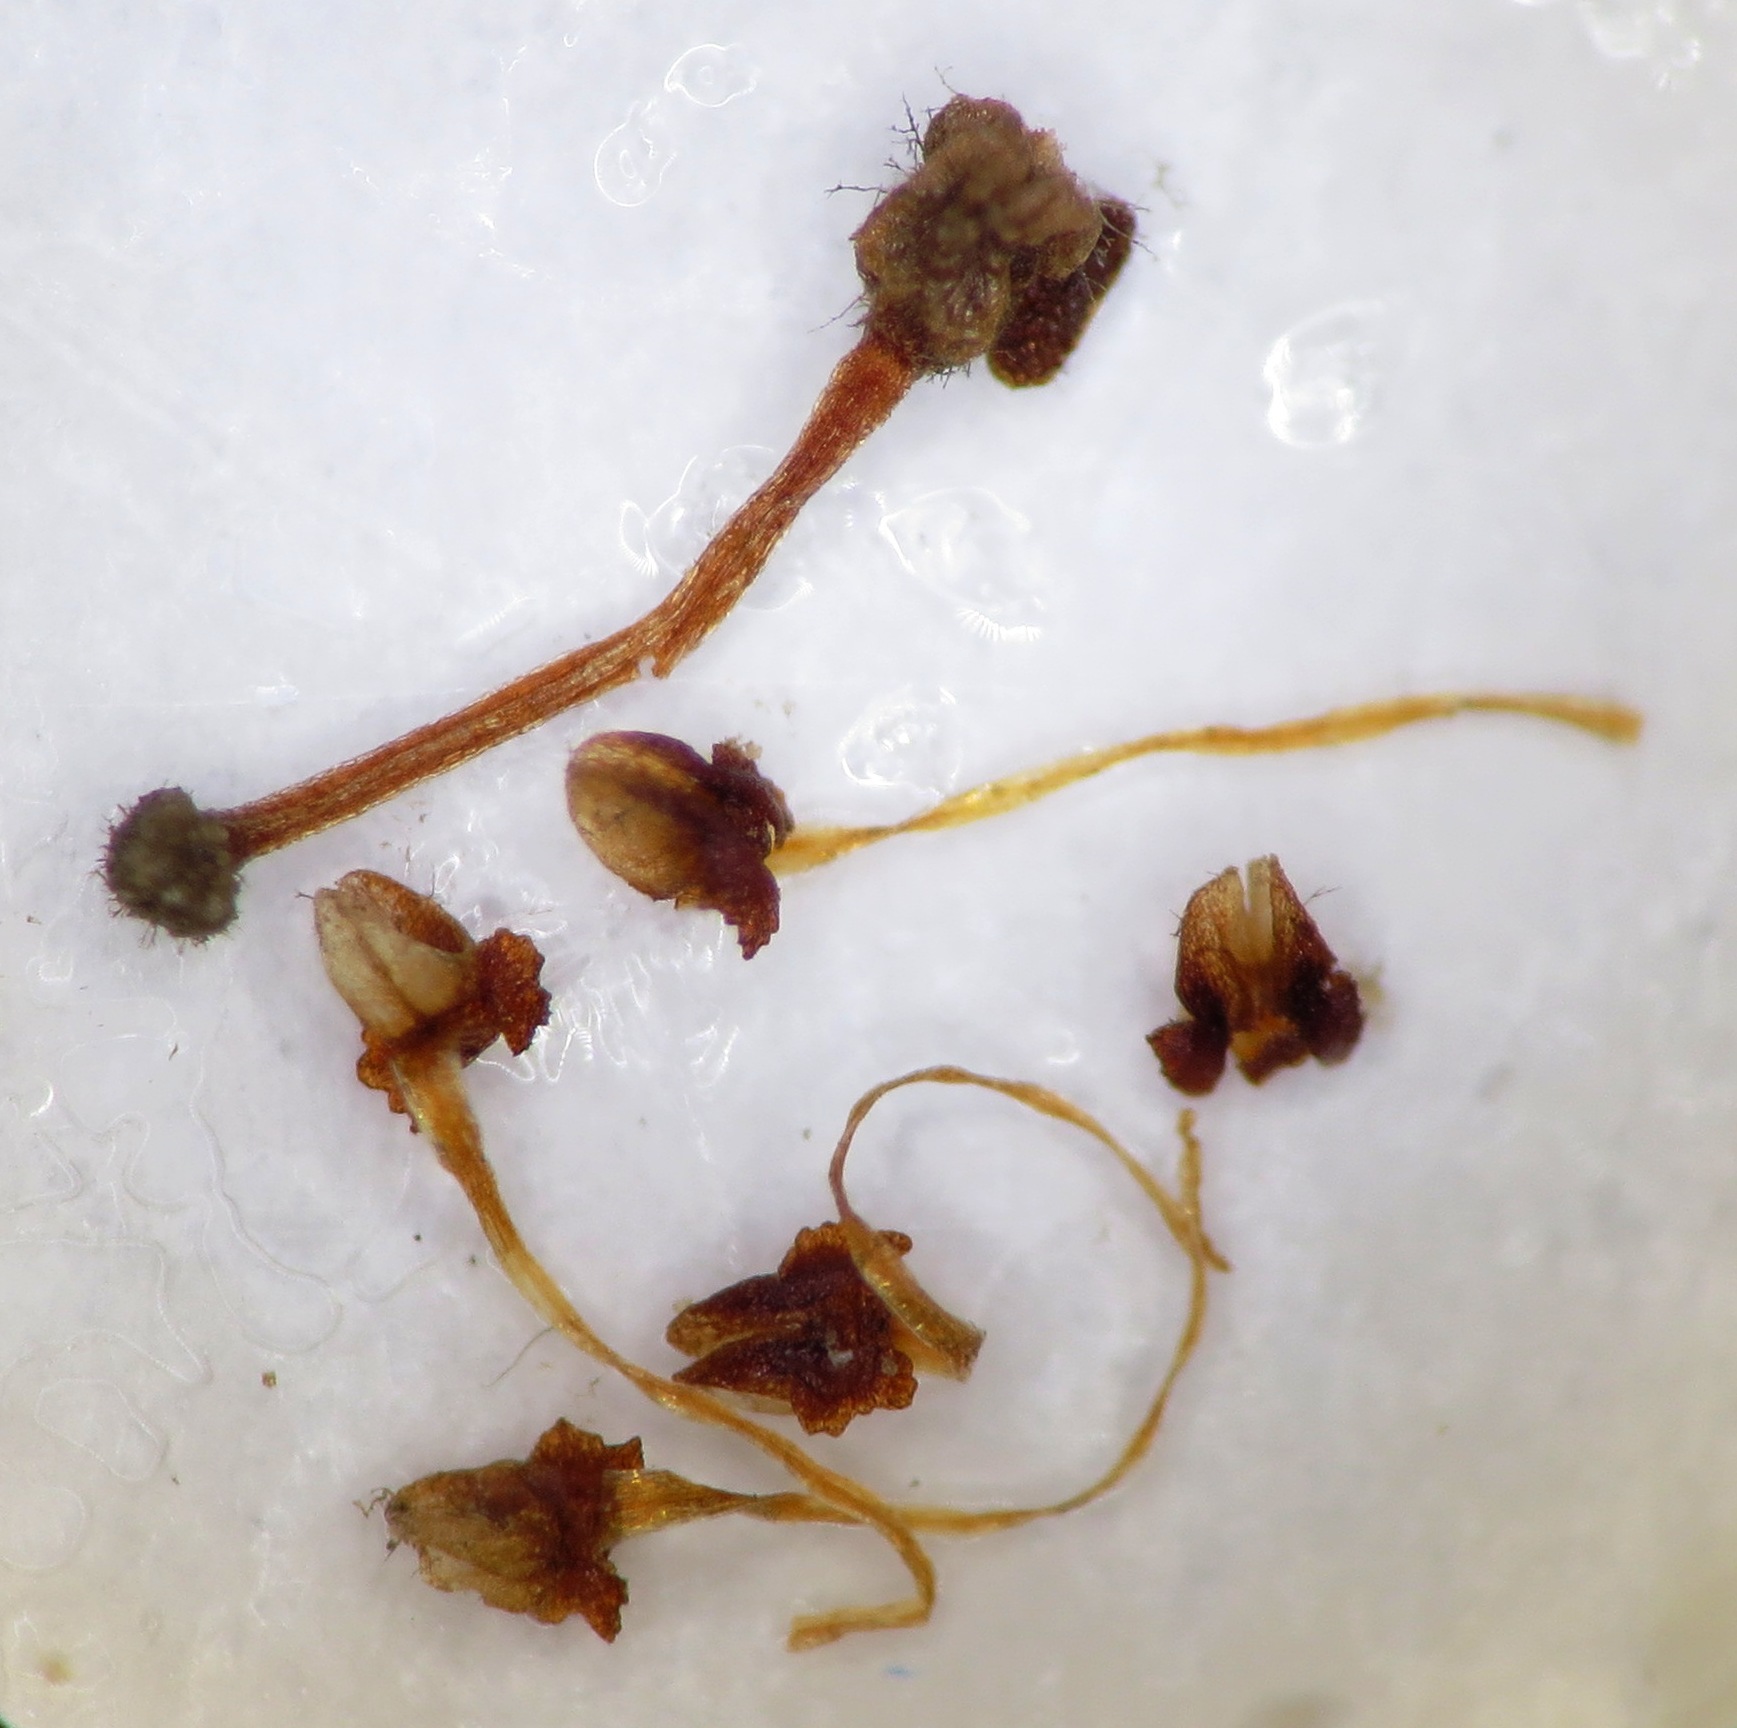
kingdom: Plantae
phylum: Tracheophyta
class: Magnoliopsida
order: Ericales
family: Ericaceae
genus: Erica
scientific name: Erica rhopalantha
